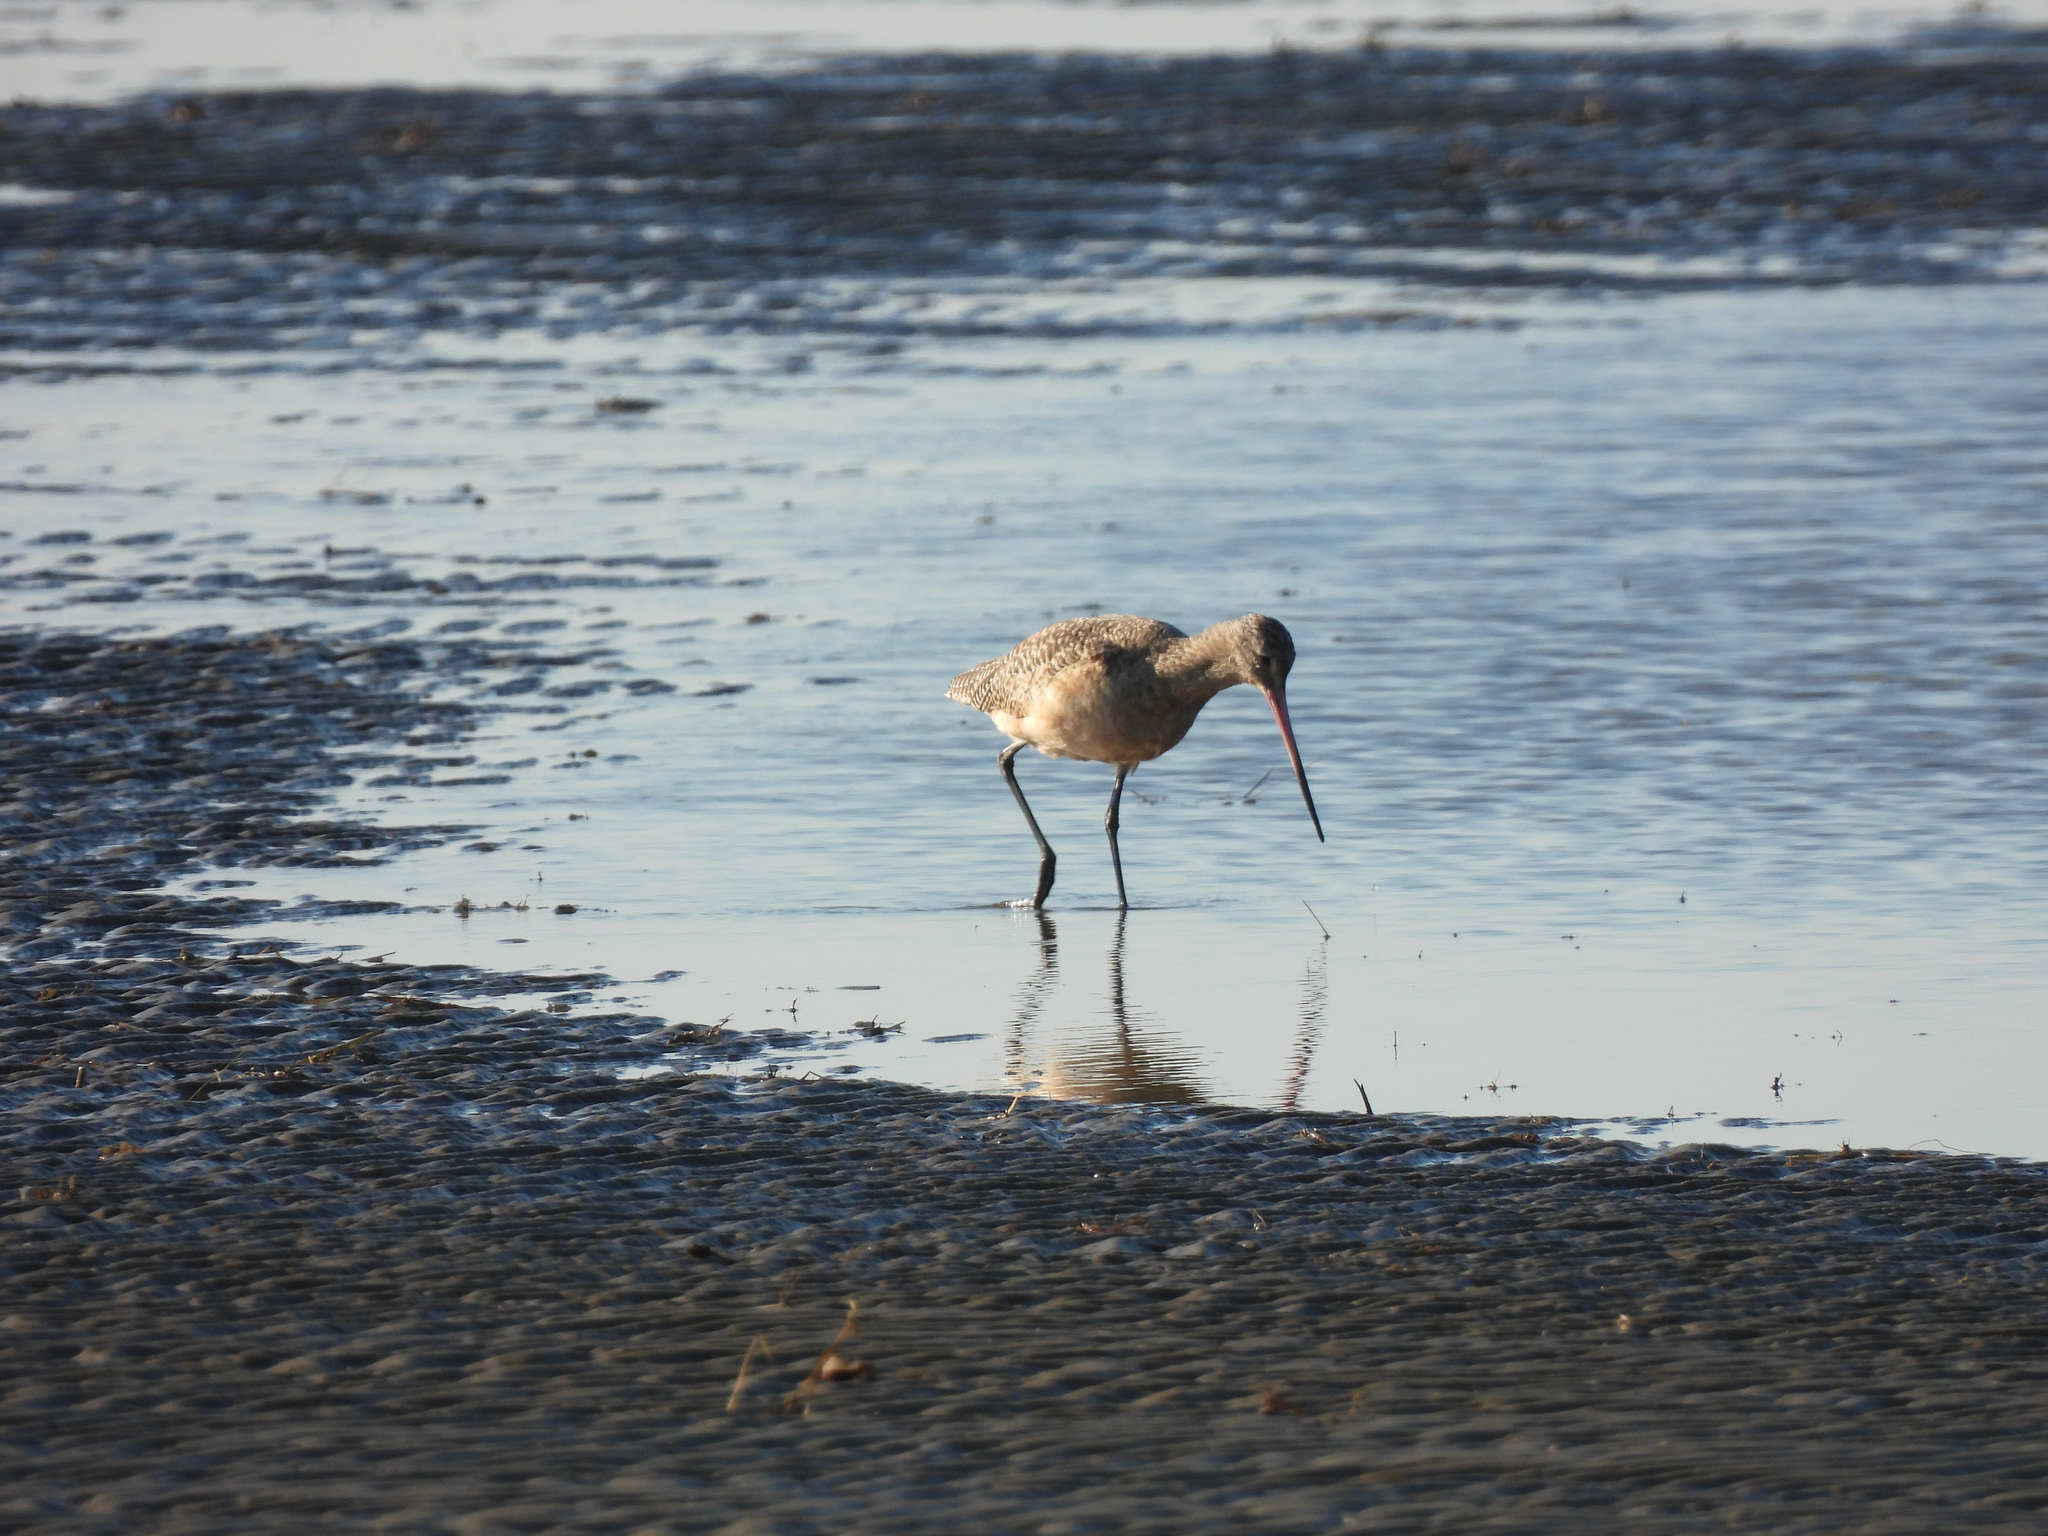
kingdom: Animalia
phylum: Chordata
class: Aves
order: Charadriiformes
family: Scolopacidae
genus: Limosa
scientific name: Limosa fedoa
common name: Marbled godwit
